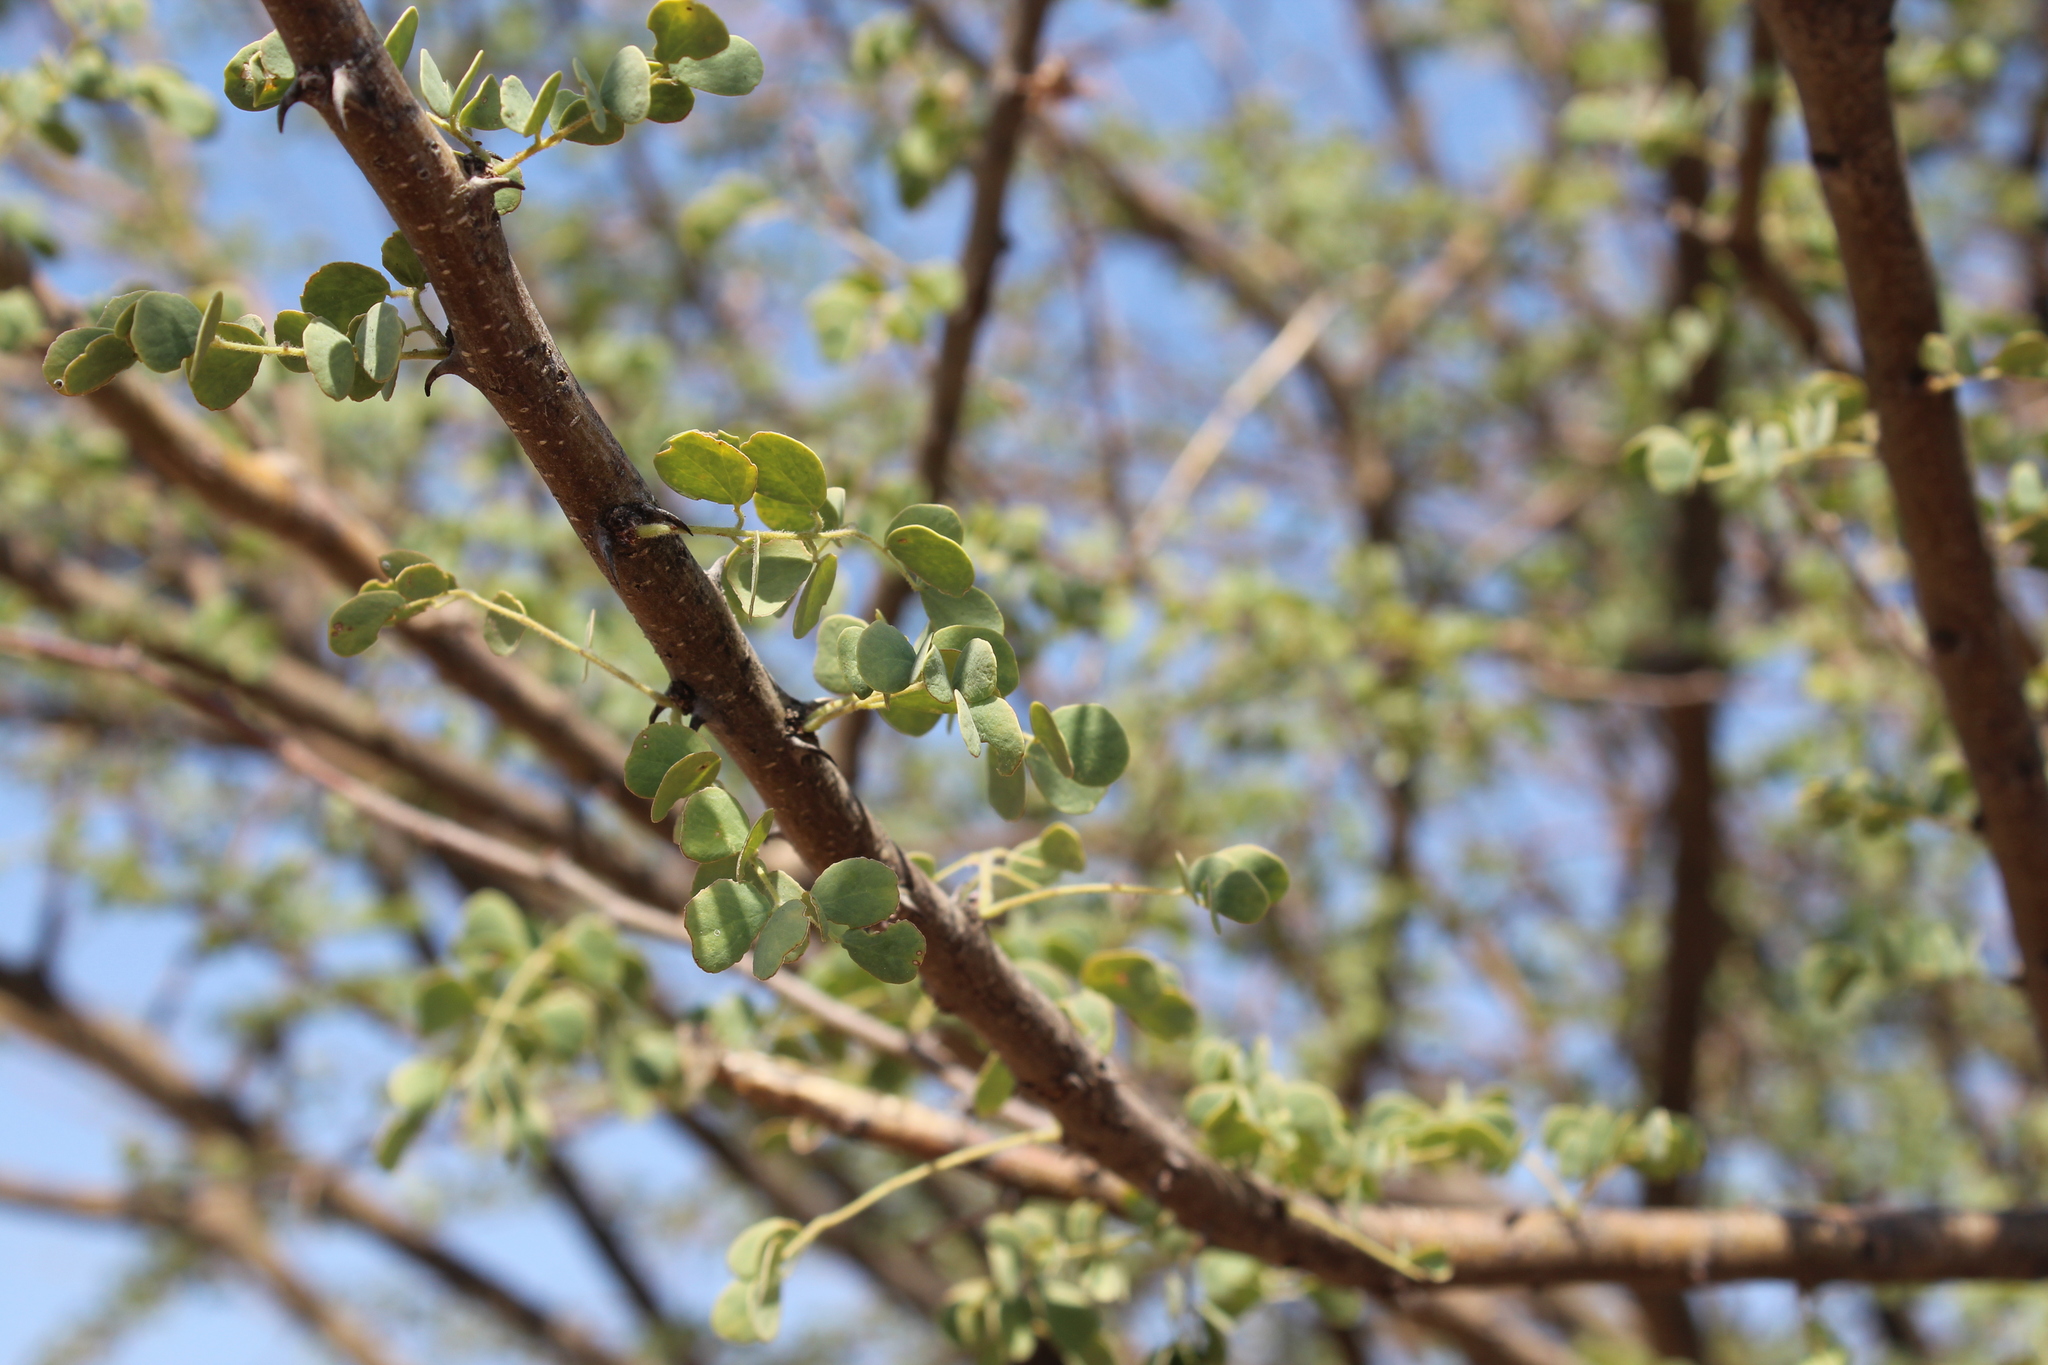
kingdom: Plantae
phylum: Tracheophyta
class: Magnoliopsida
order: Fabales
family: Fabaceae
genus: Senegalia
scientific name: Senegalia mellifera
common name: Hookthorn
